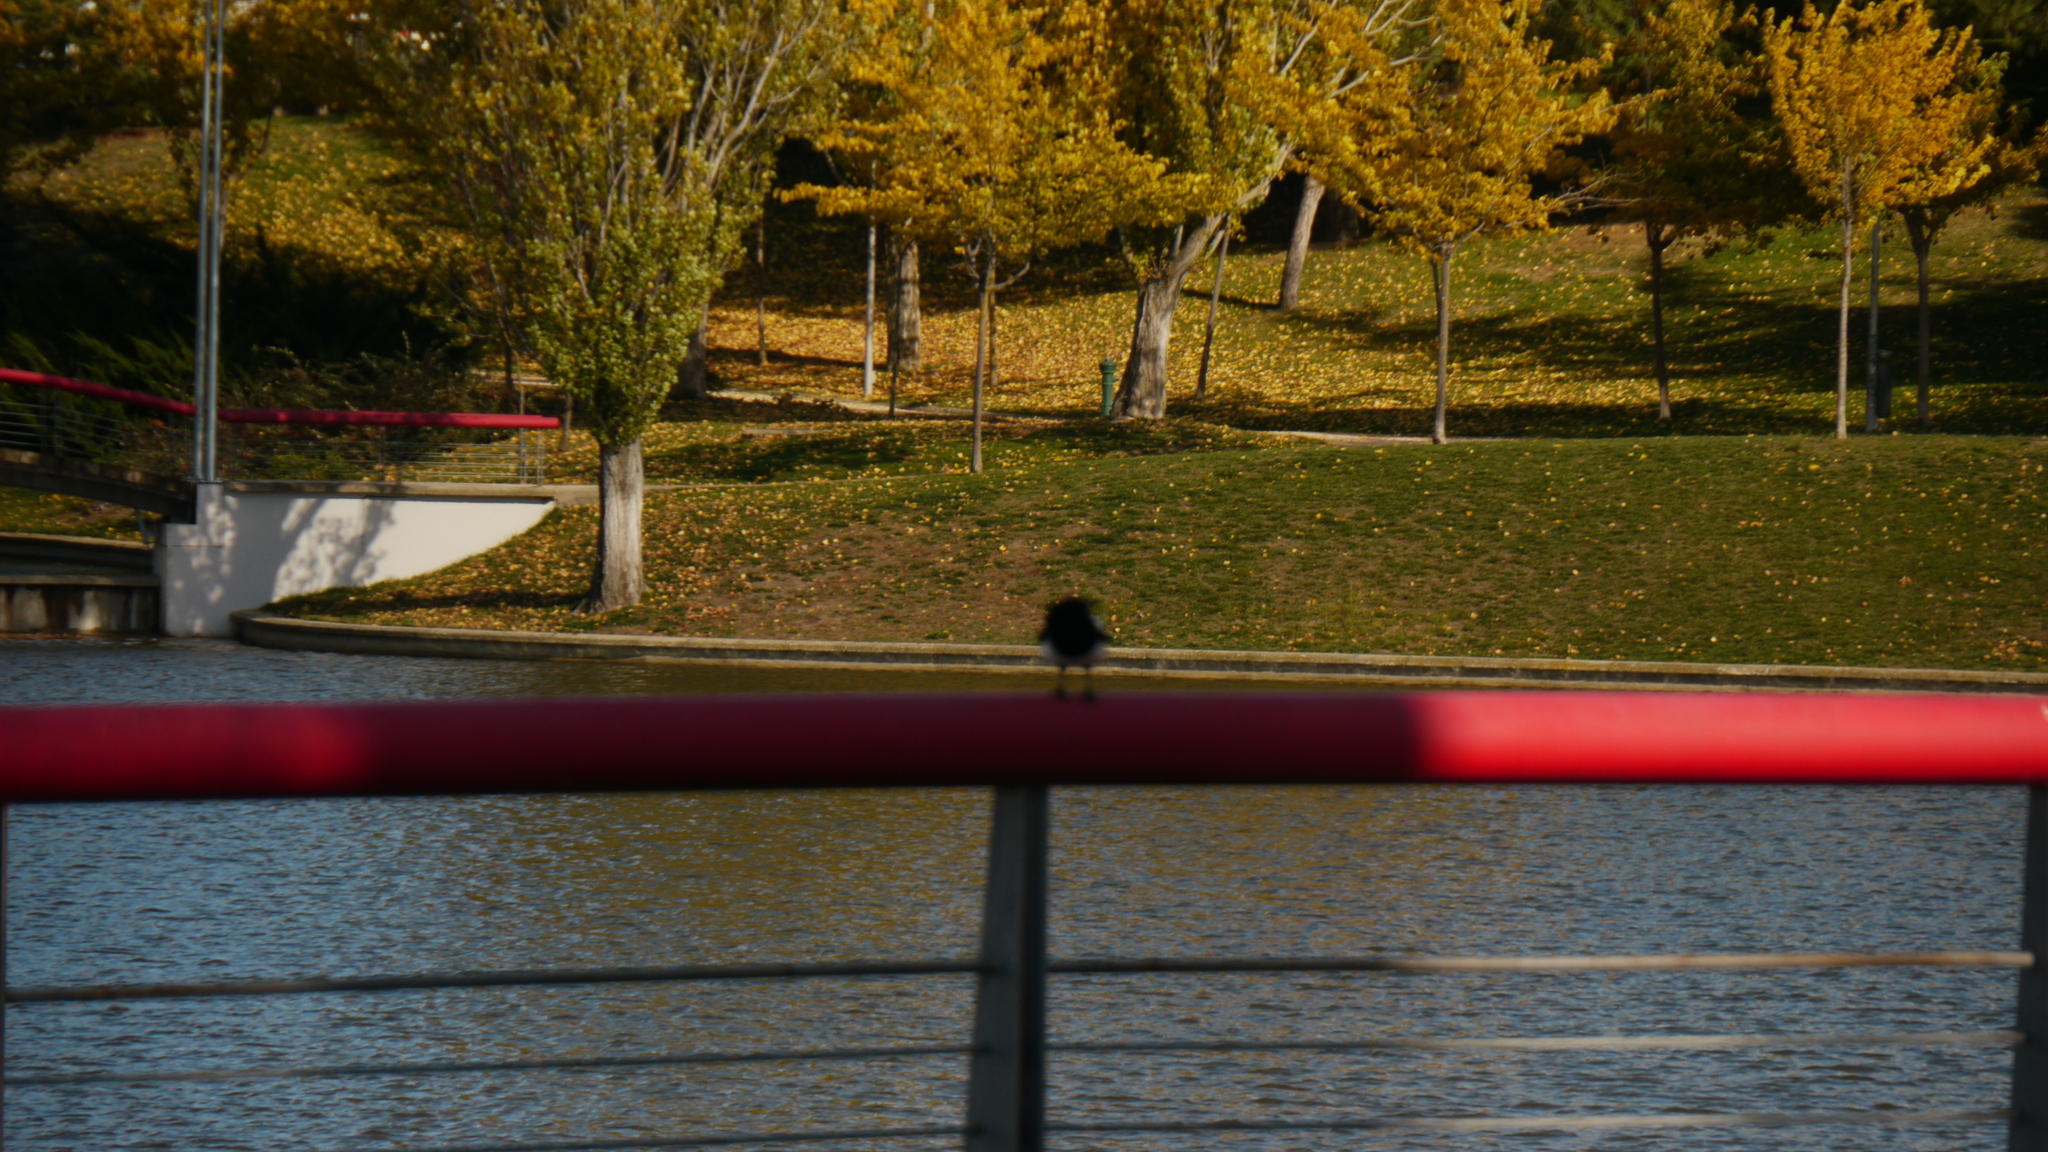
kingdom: Animalia
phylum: Chordata
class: Aves
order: Passeriformes
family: Corvidae
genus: Pica
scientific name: Pica pica
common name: Eurasian magpie
